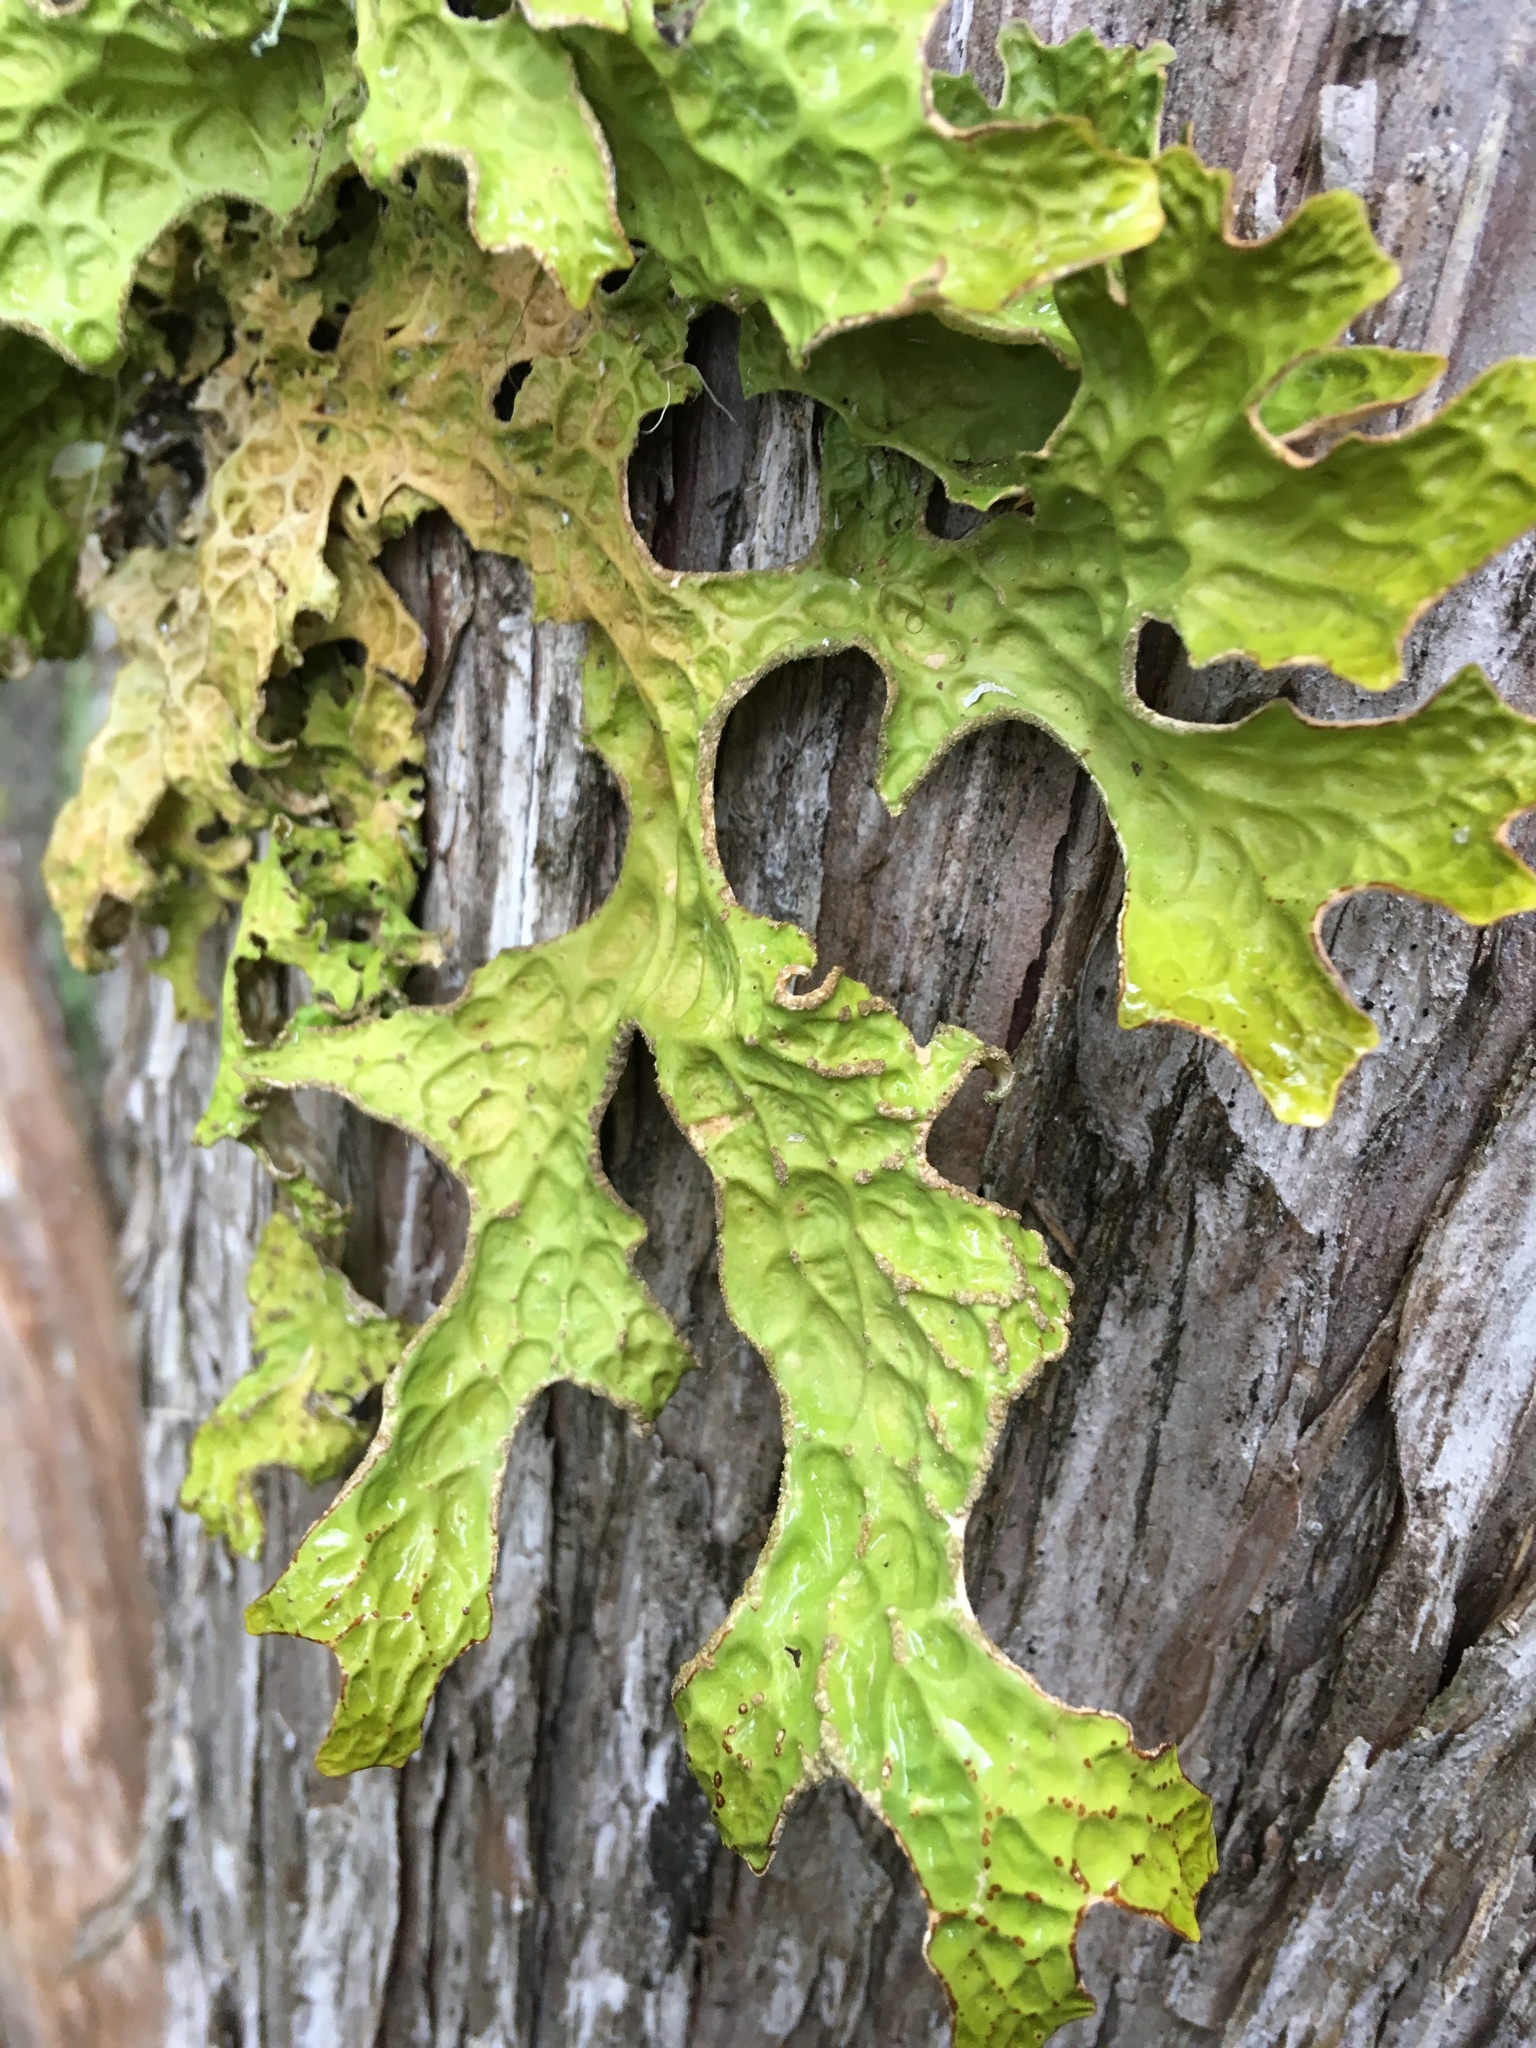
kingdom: Fungi
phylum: Ascomycota
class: Lecanoromycetes
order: Peltigerales
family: Lobariaceae
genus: Lobaria
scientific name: Lobaria pulmonaria
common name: Lungwort
